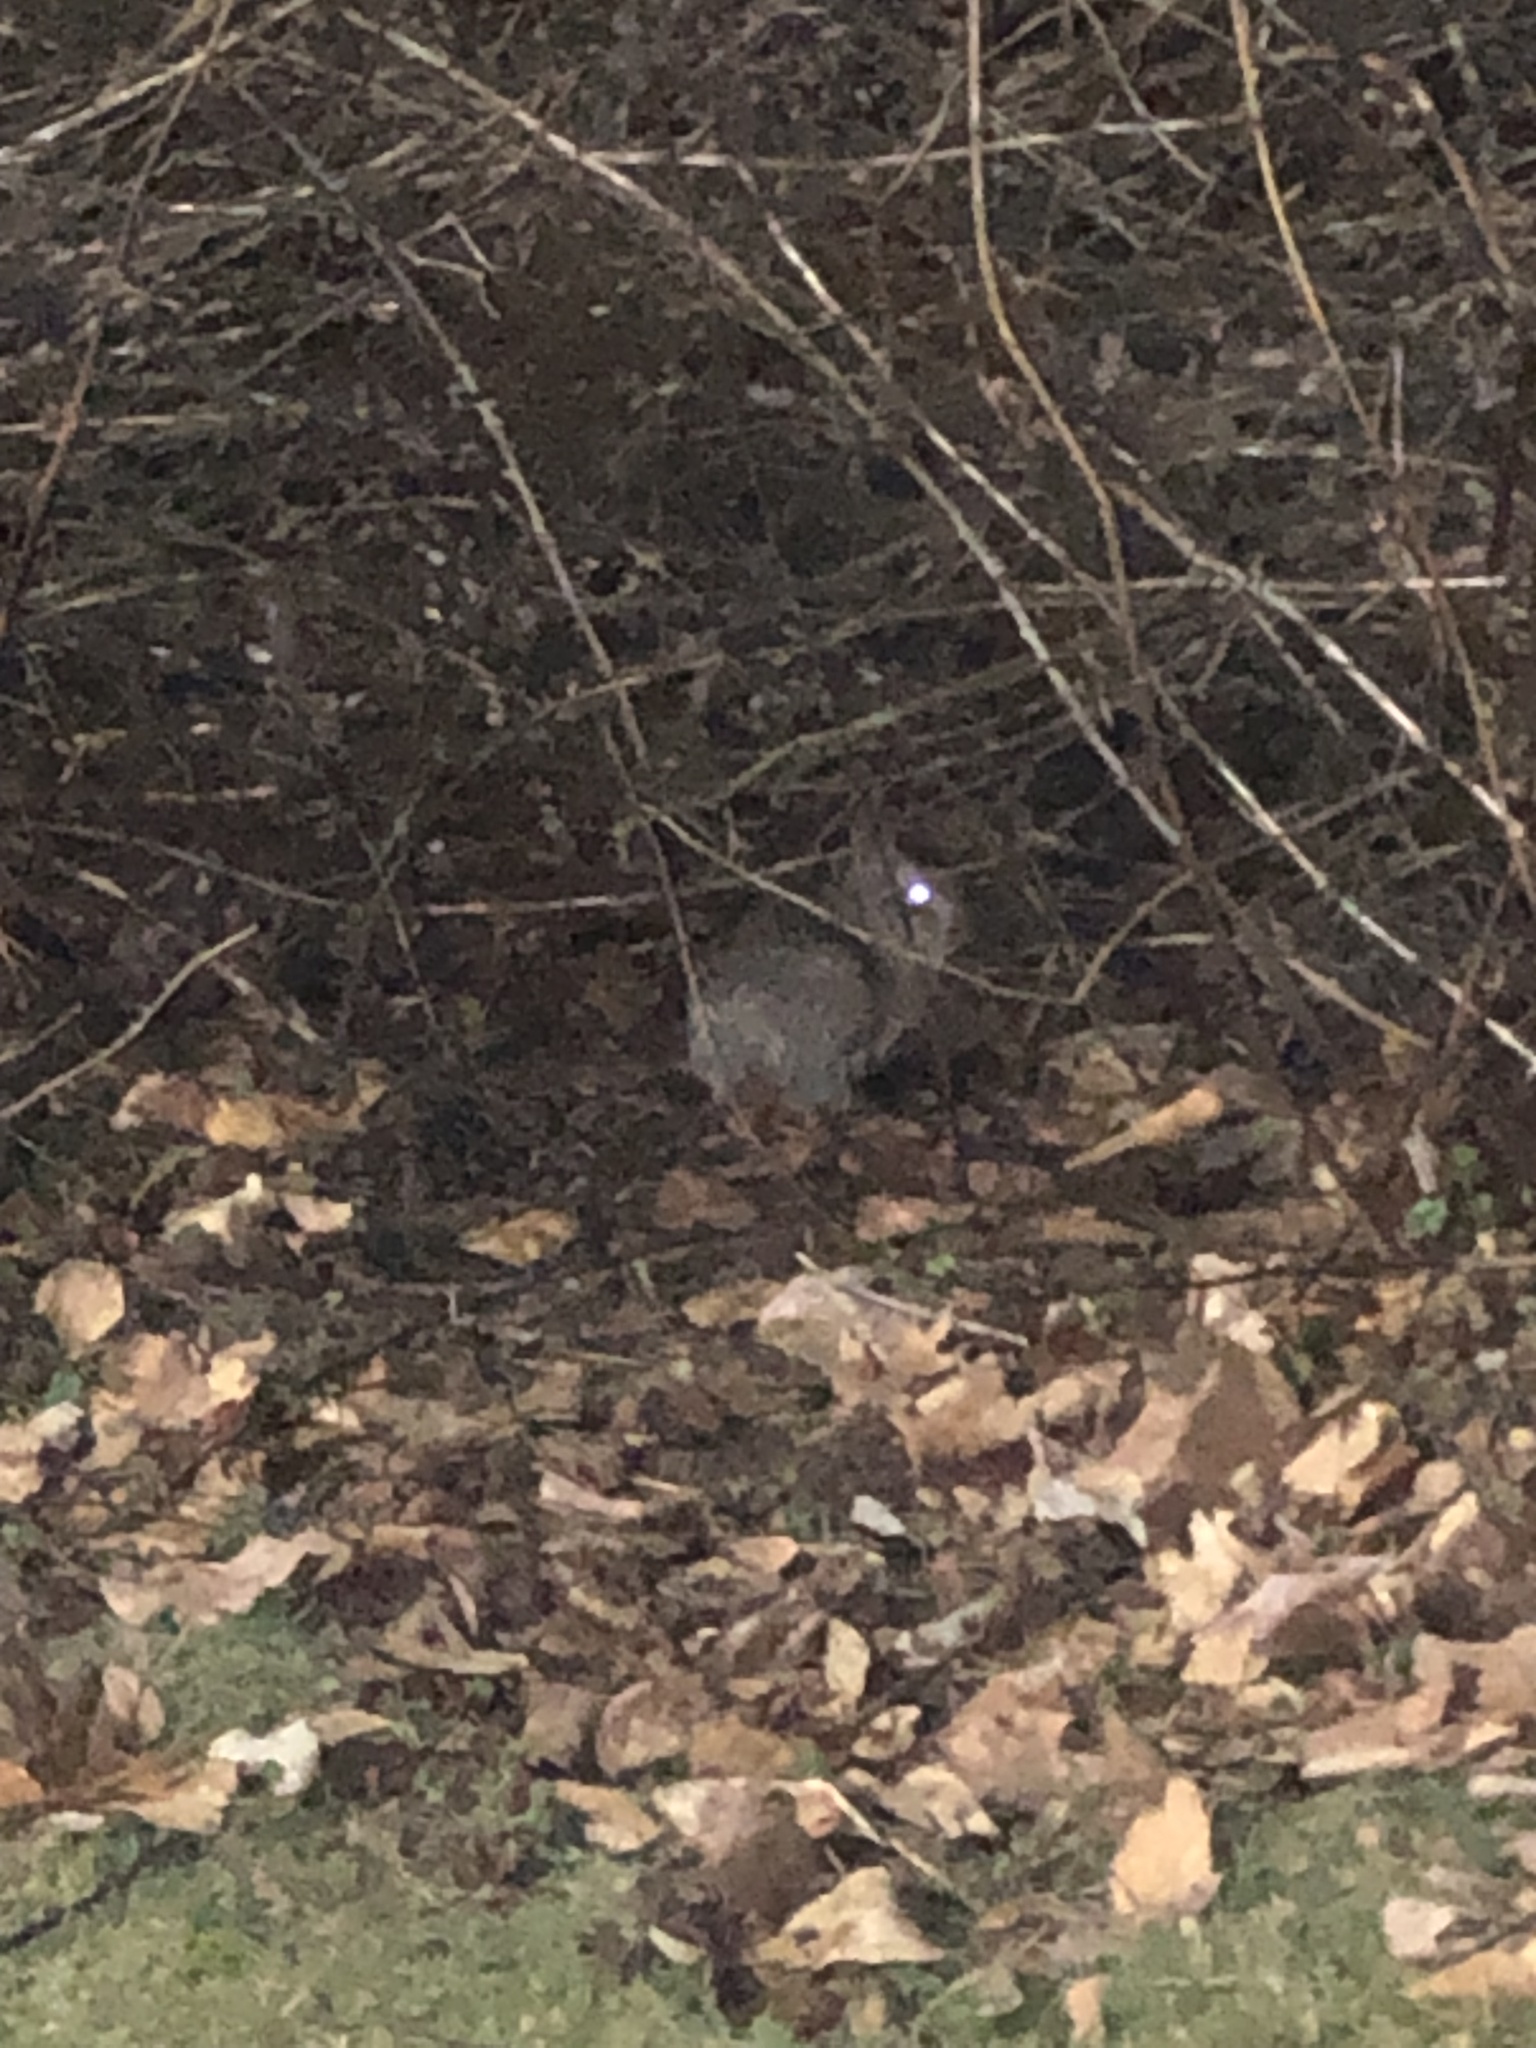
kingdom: Animalia
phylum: Chordata
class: Mammalia
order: Lagomorpha
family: Leporidae
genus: Sylvilagus
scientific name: Sylvilagus floridanus
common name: Eastern cottontail
